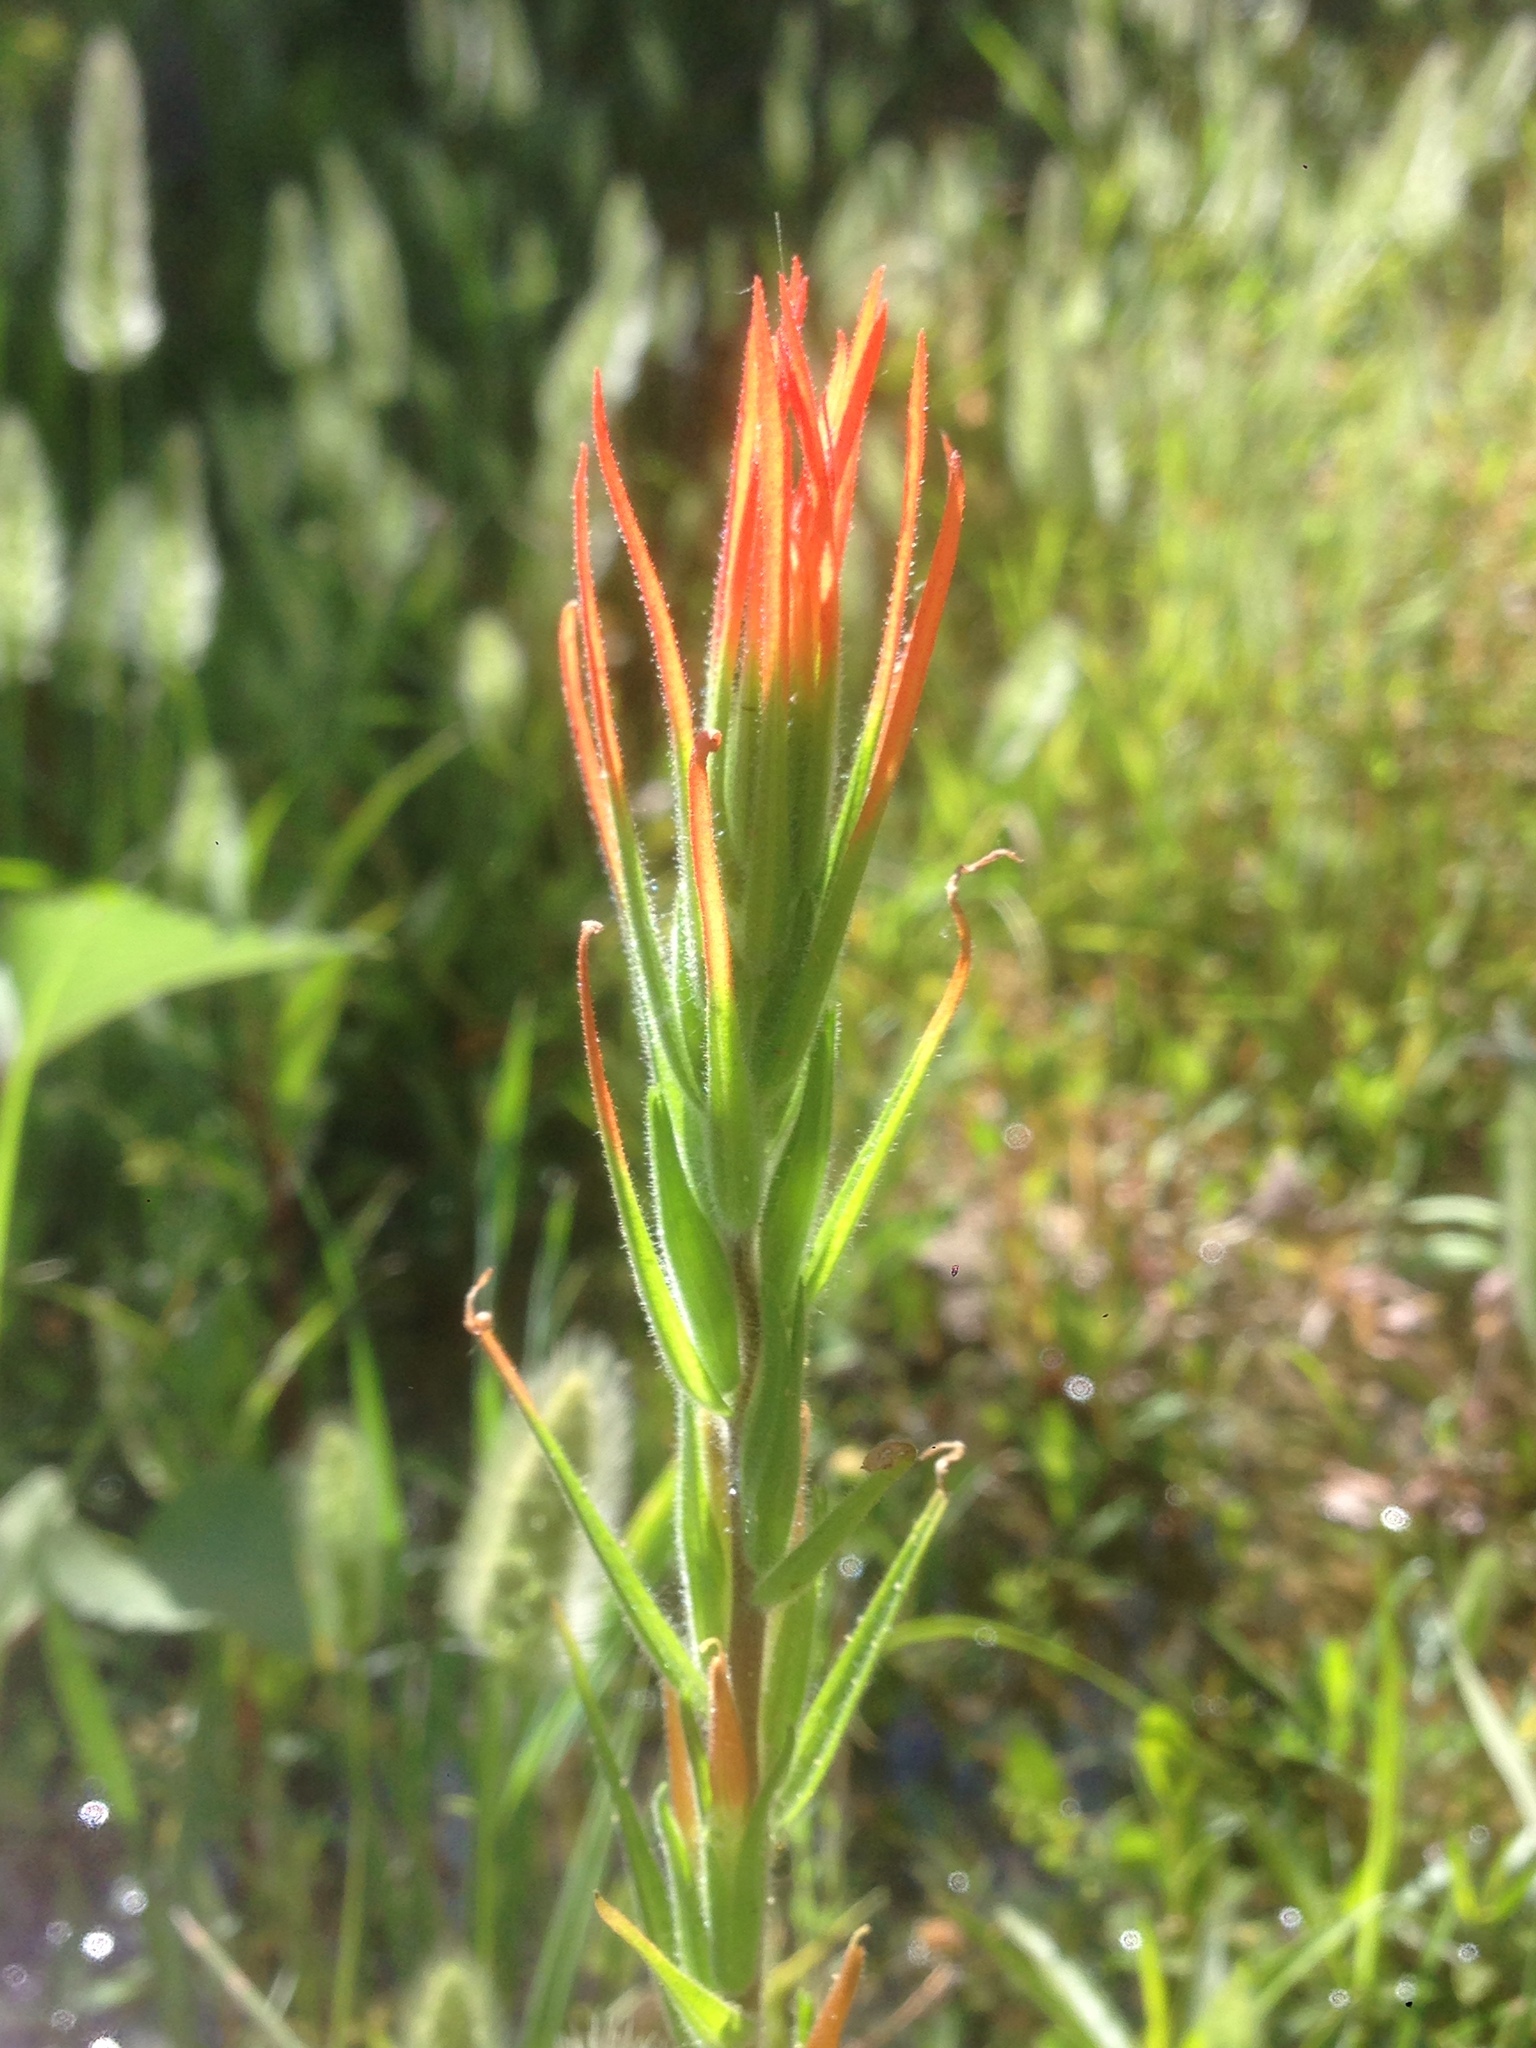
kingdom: Plantae
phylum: Tracheophyta
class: Magnoliopsida
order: Lamiales
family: Orobanchaceae
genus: Castilleja
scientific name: Castilleja minor
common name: Seep paintbrush
